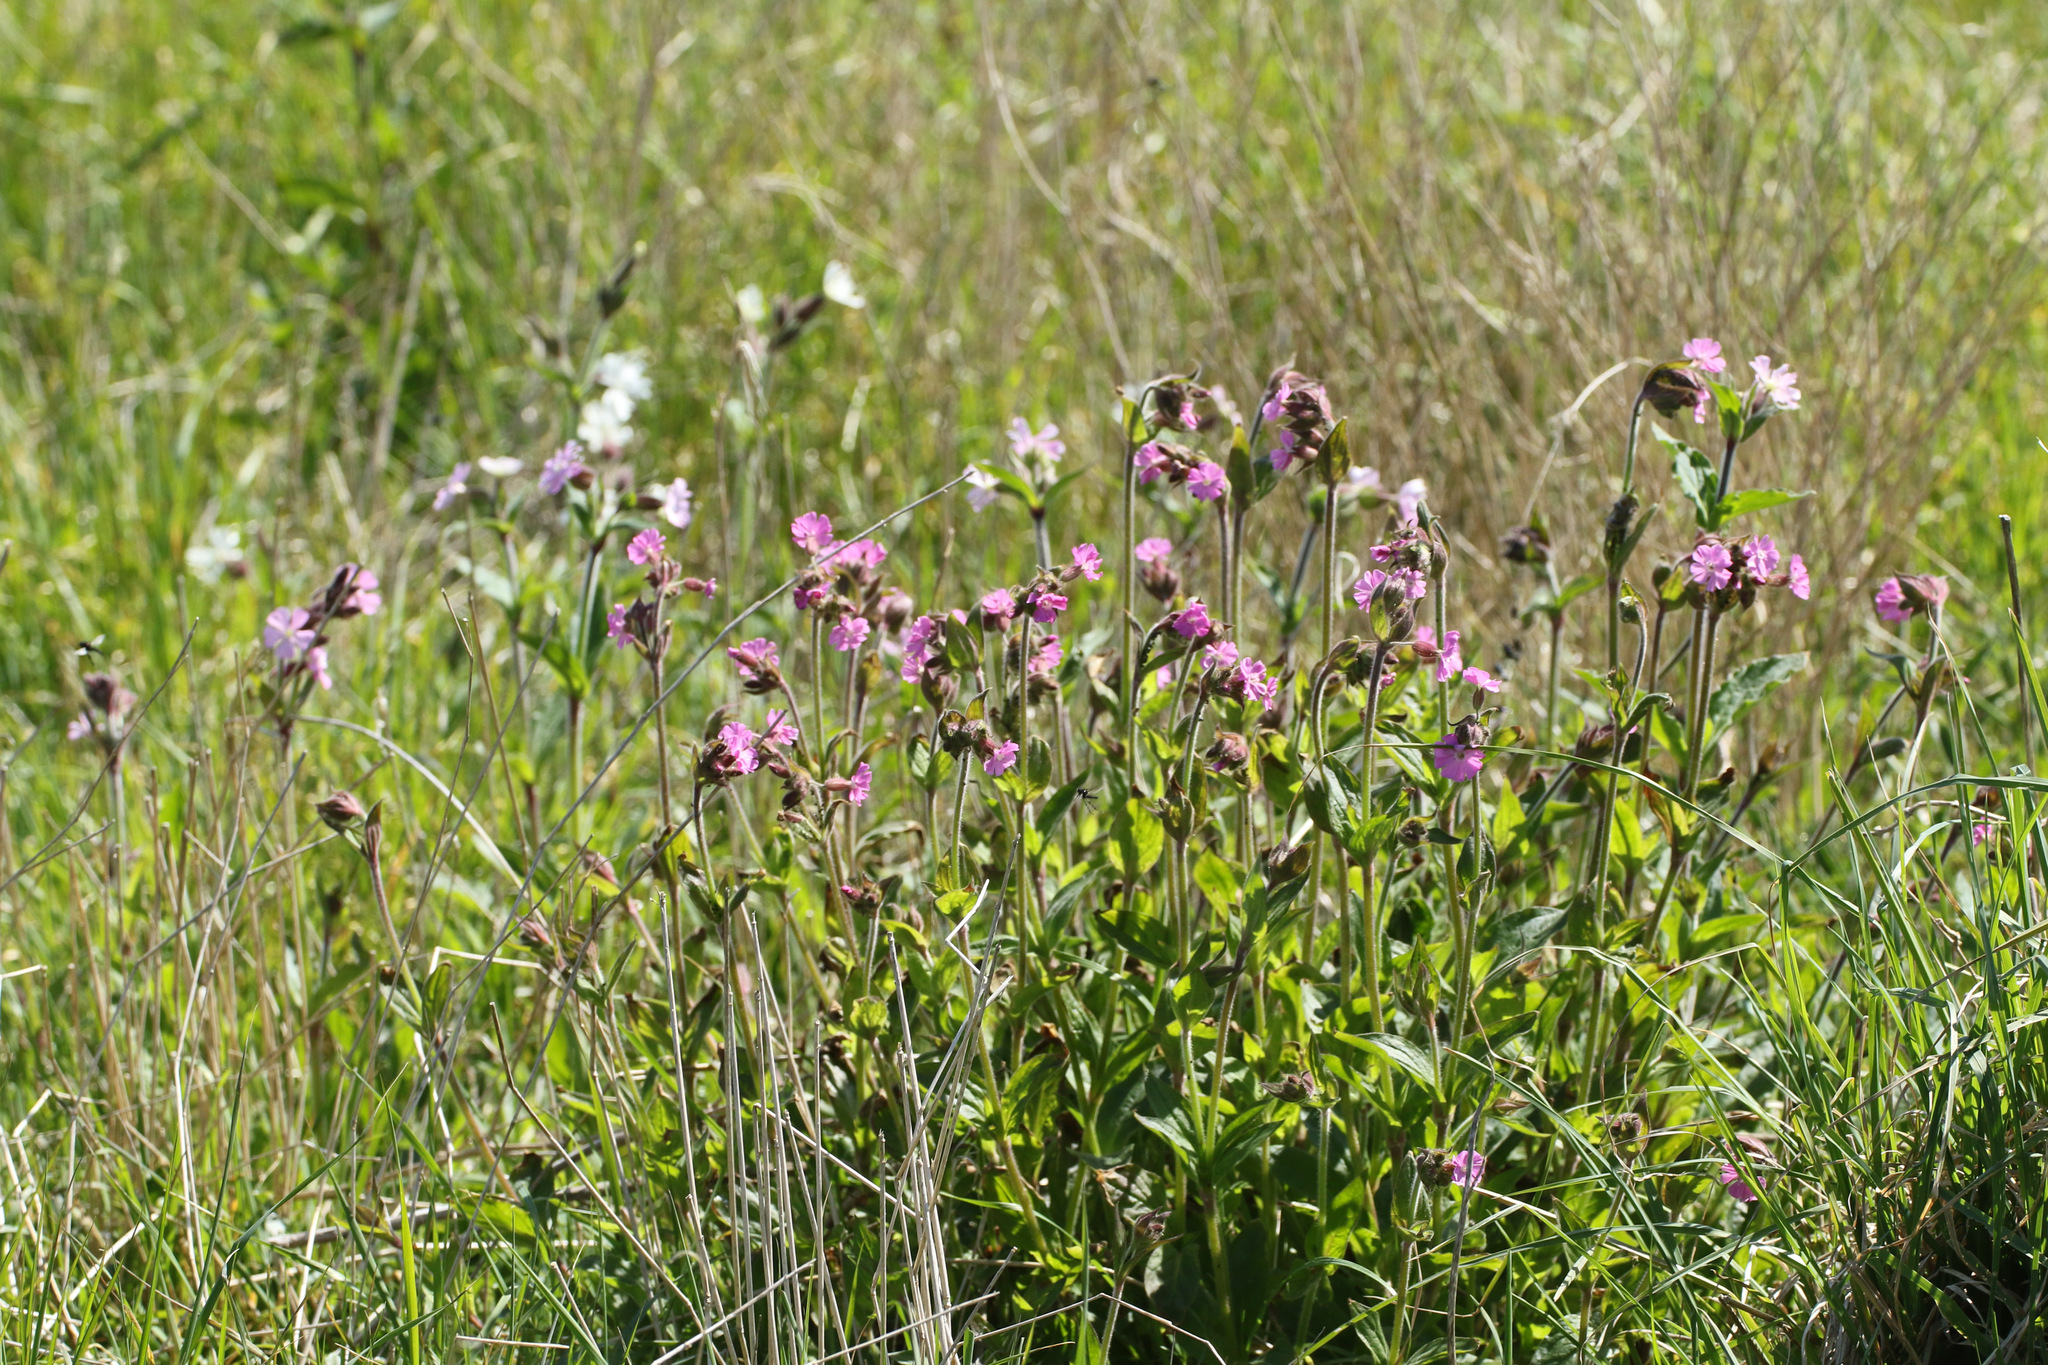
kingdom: Plantae
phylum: Tracheophyta
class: Magnoliopsida
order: Caryophyllales
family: Caryophyllaceae
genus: Silene
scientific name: Silene dioica
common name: Red campion
